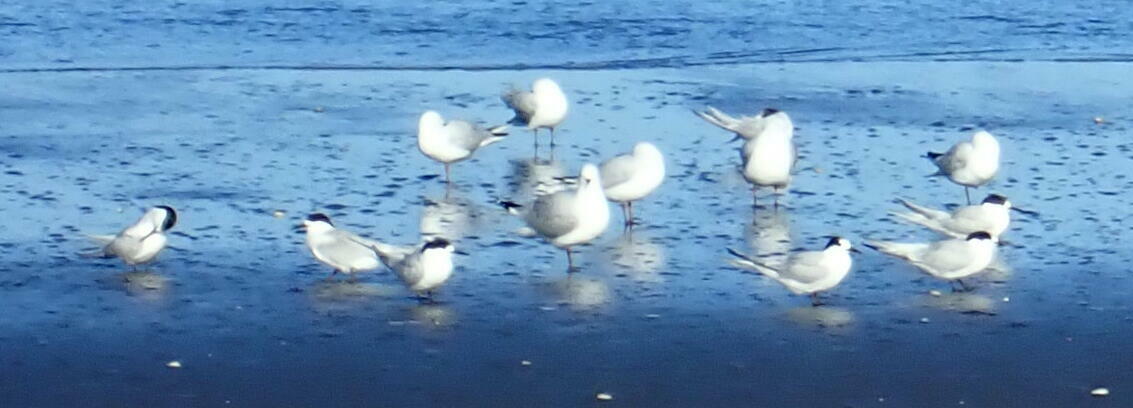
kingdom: Animalia
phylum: Chordata
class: Aves
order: Charadriiformes
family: Laridae
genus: Sterna
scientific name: Sterna striata
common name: White-fronted tern
